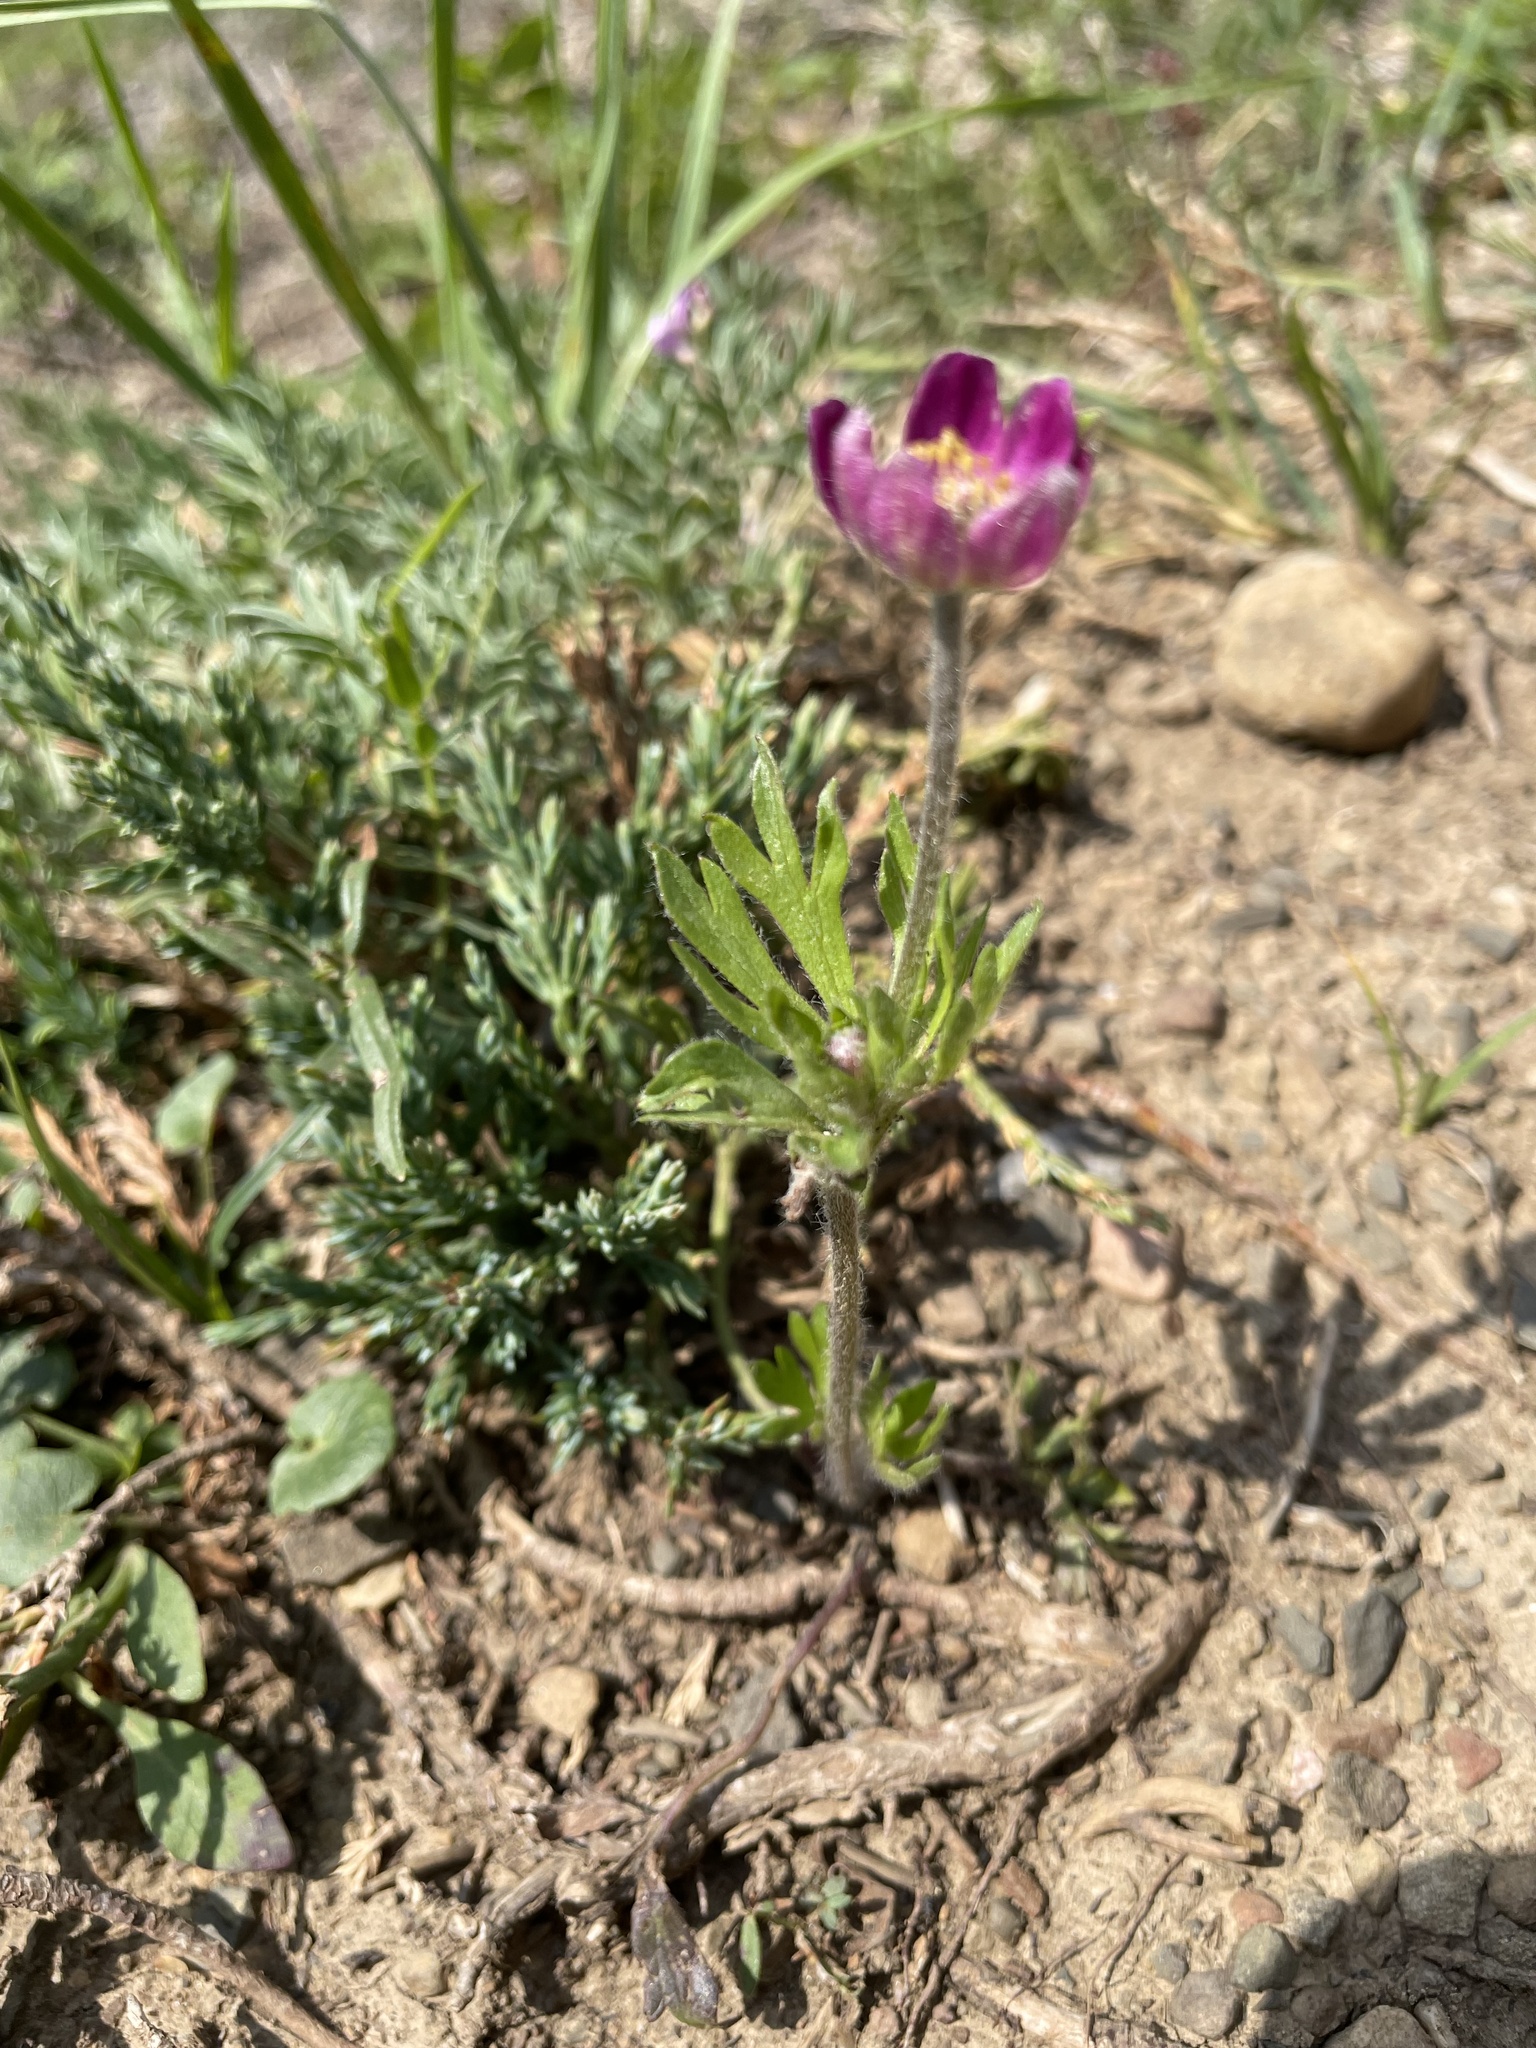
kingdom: Plantae
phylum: Tracheophyta
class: Magnoliopsida
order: Ranunculales
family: Ranunculaceae
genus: Anemone
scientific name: Anemone multifida
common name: Bird's-foot anemone
